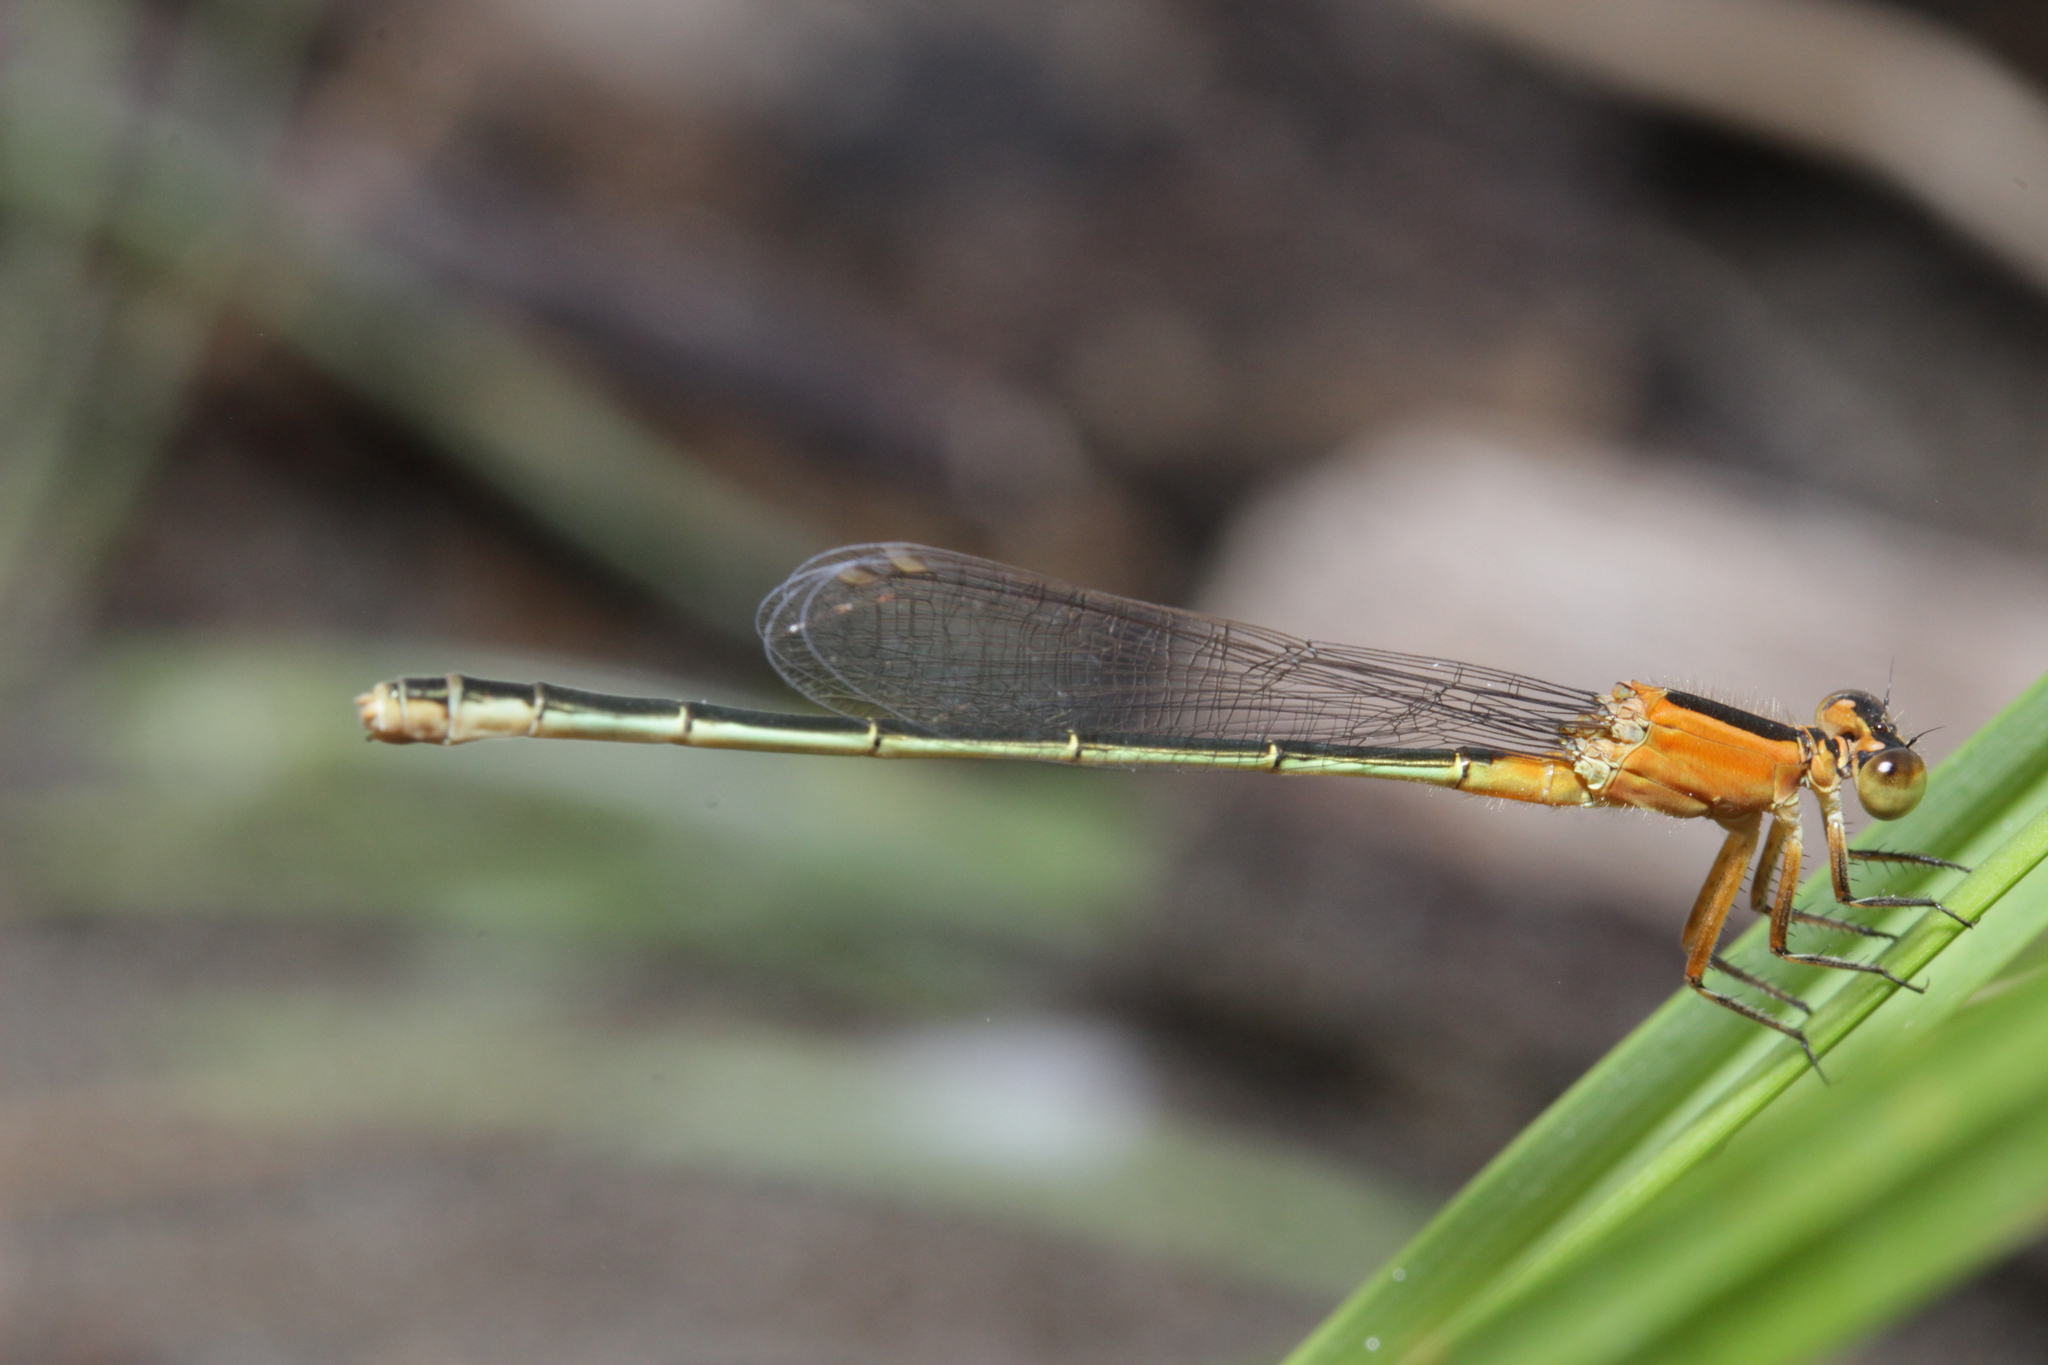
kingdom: Animalia
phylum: Arthropoda
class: Insecta
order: Odonata
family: Coenagrionidae
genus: Ischnura
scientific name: Ischnura ramburii
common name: Rambur's forktail
